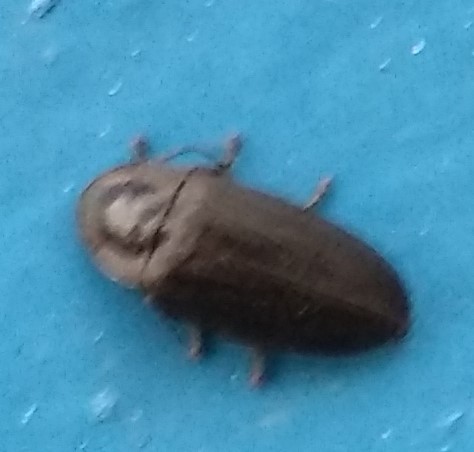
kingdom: Animalia
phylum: Arthropoda
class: Insecta
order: Coleoptera
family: Lampyridae
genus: Photinus
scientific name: Photinus corrusca
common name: Winter firefly
